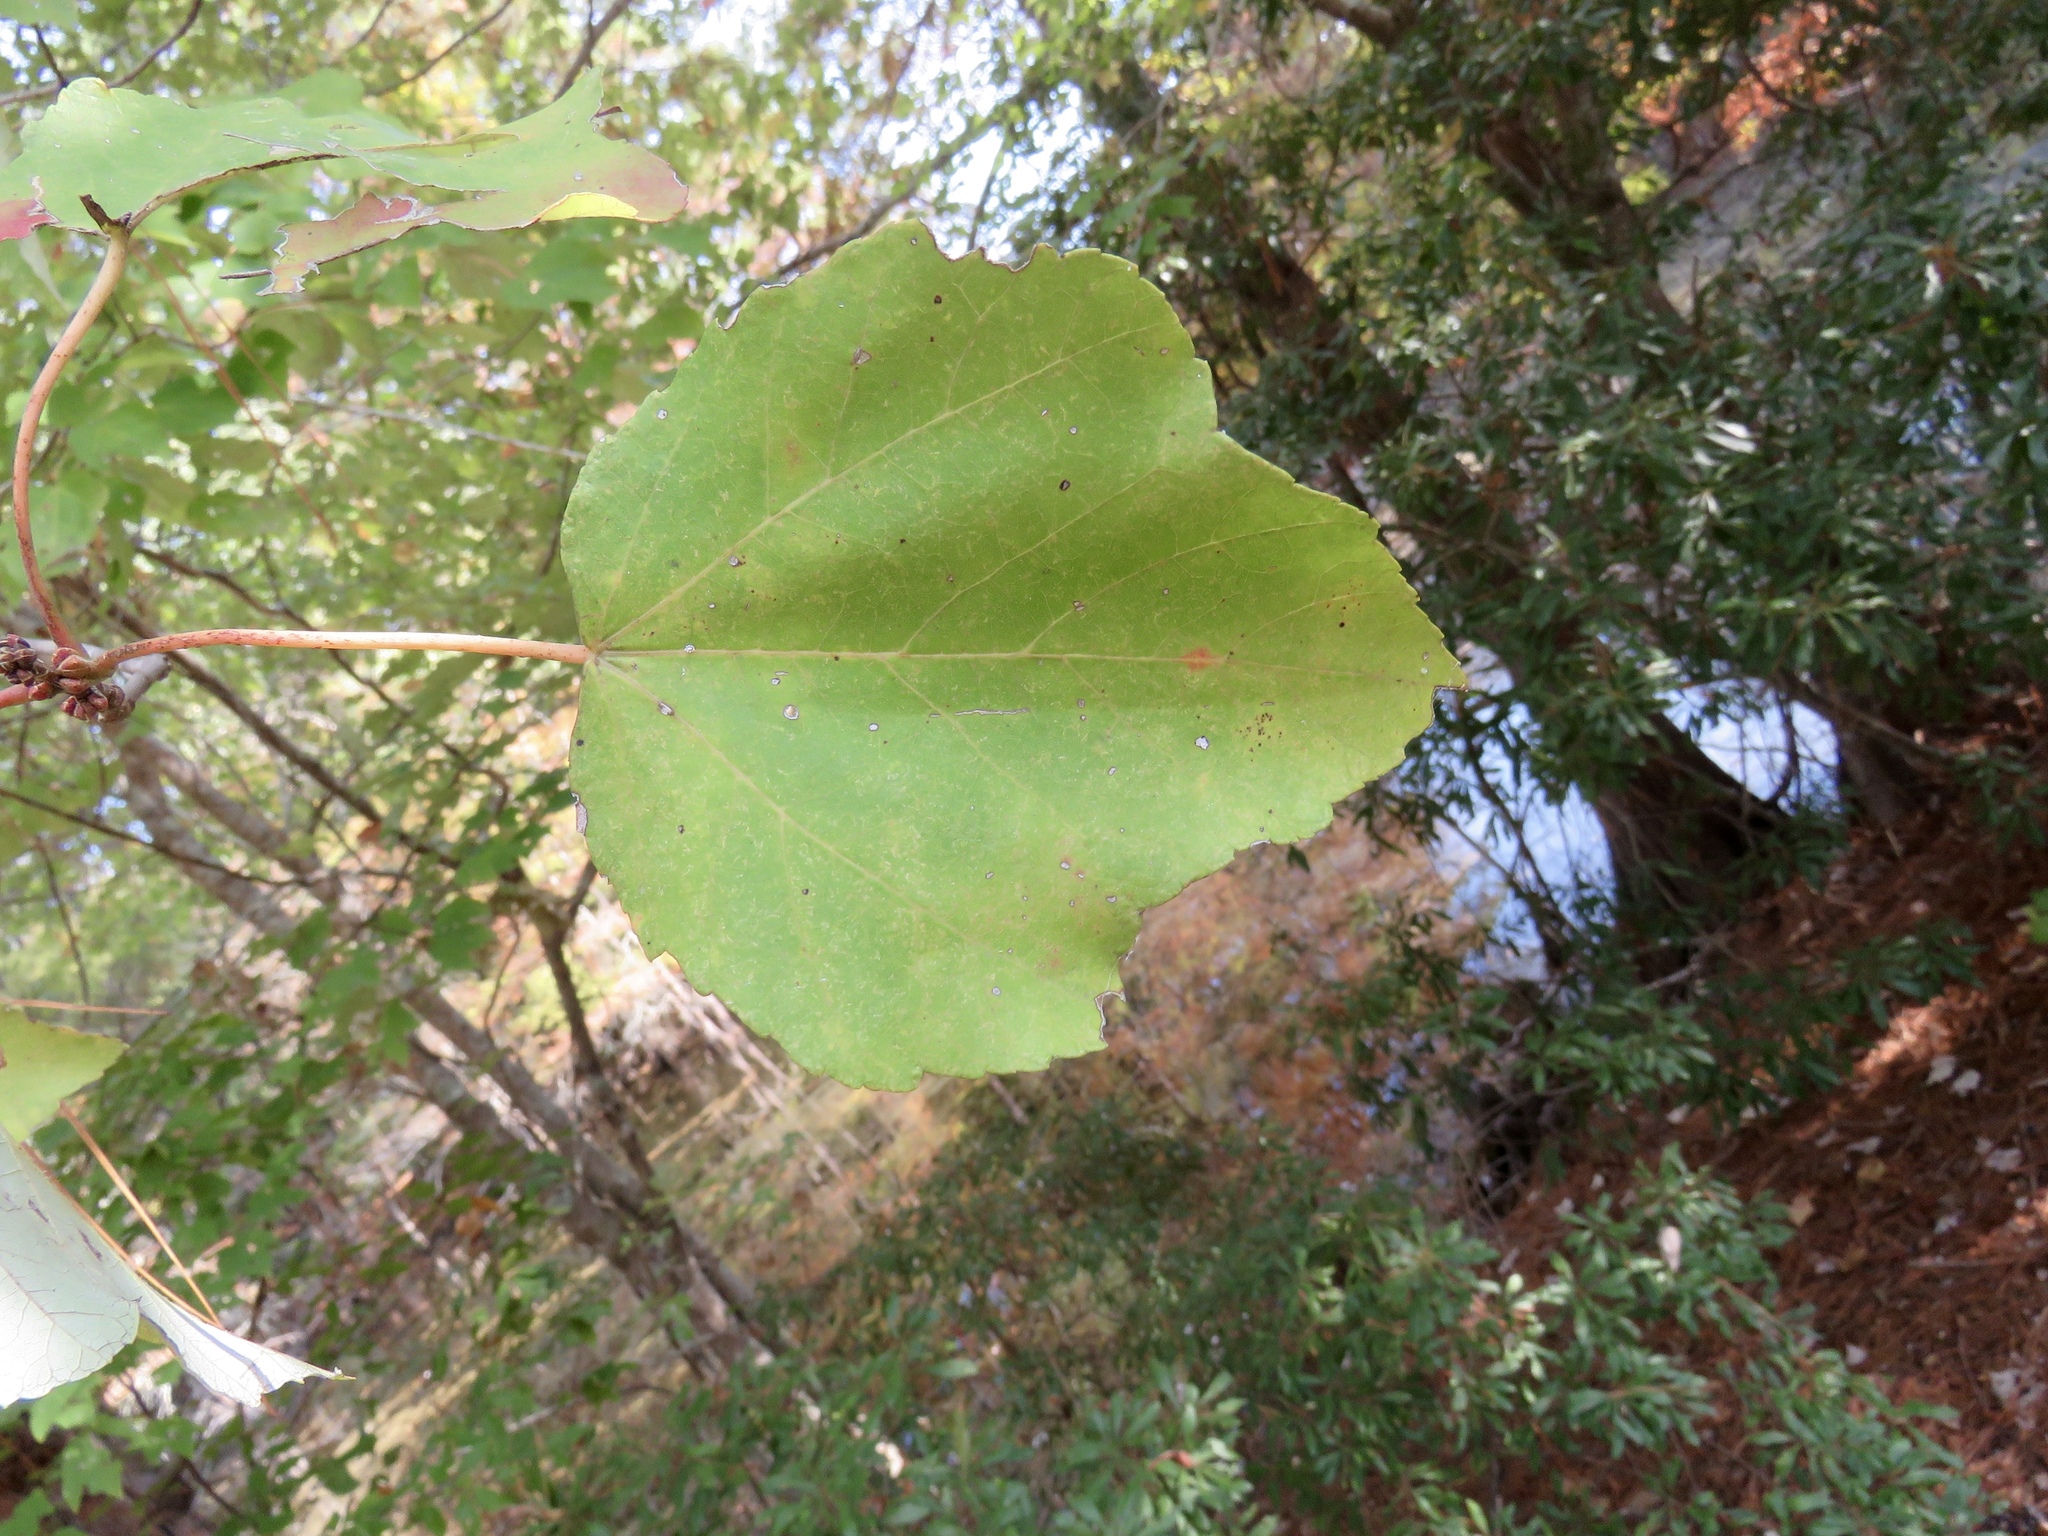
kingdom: Plantae
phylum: Tracheophyta
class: Magnoliopsida
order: Malpighiales
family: Salicaceae
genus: Populus
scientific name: Populus alba
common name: White poplar
